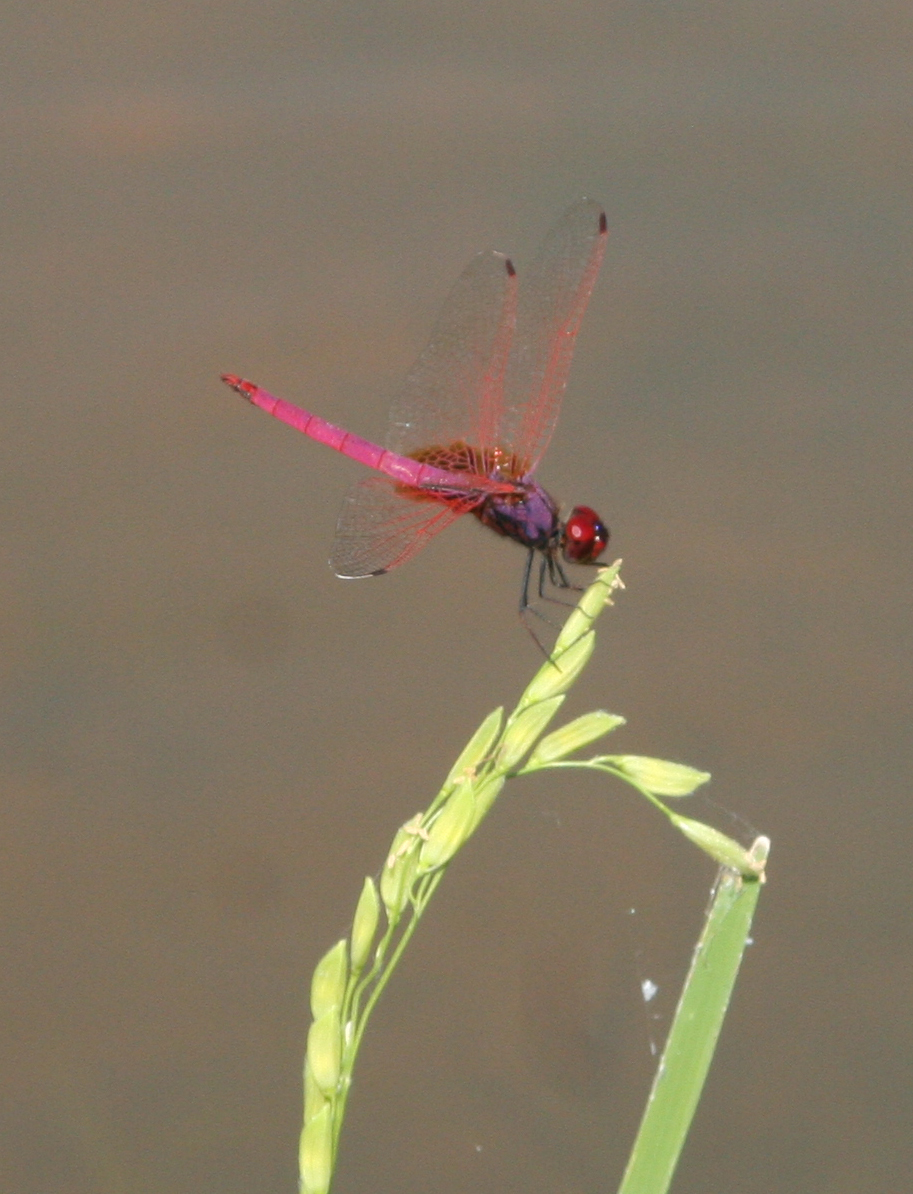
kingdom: Animalia
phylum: Arthropoda
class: Insecta
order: Odonata
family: Libellulidae
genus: Trithemis
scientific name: Trithemis aurora
